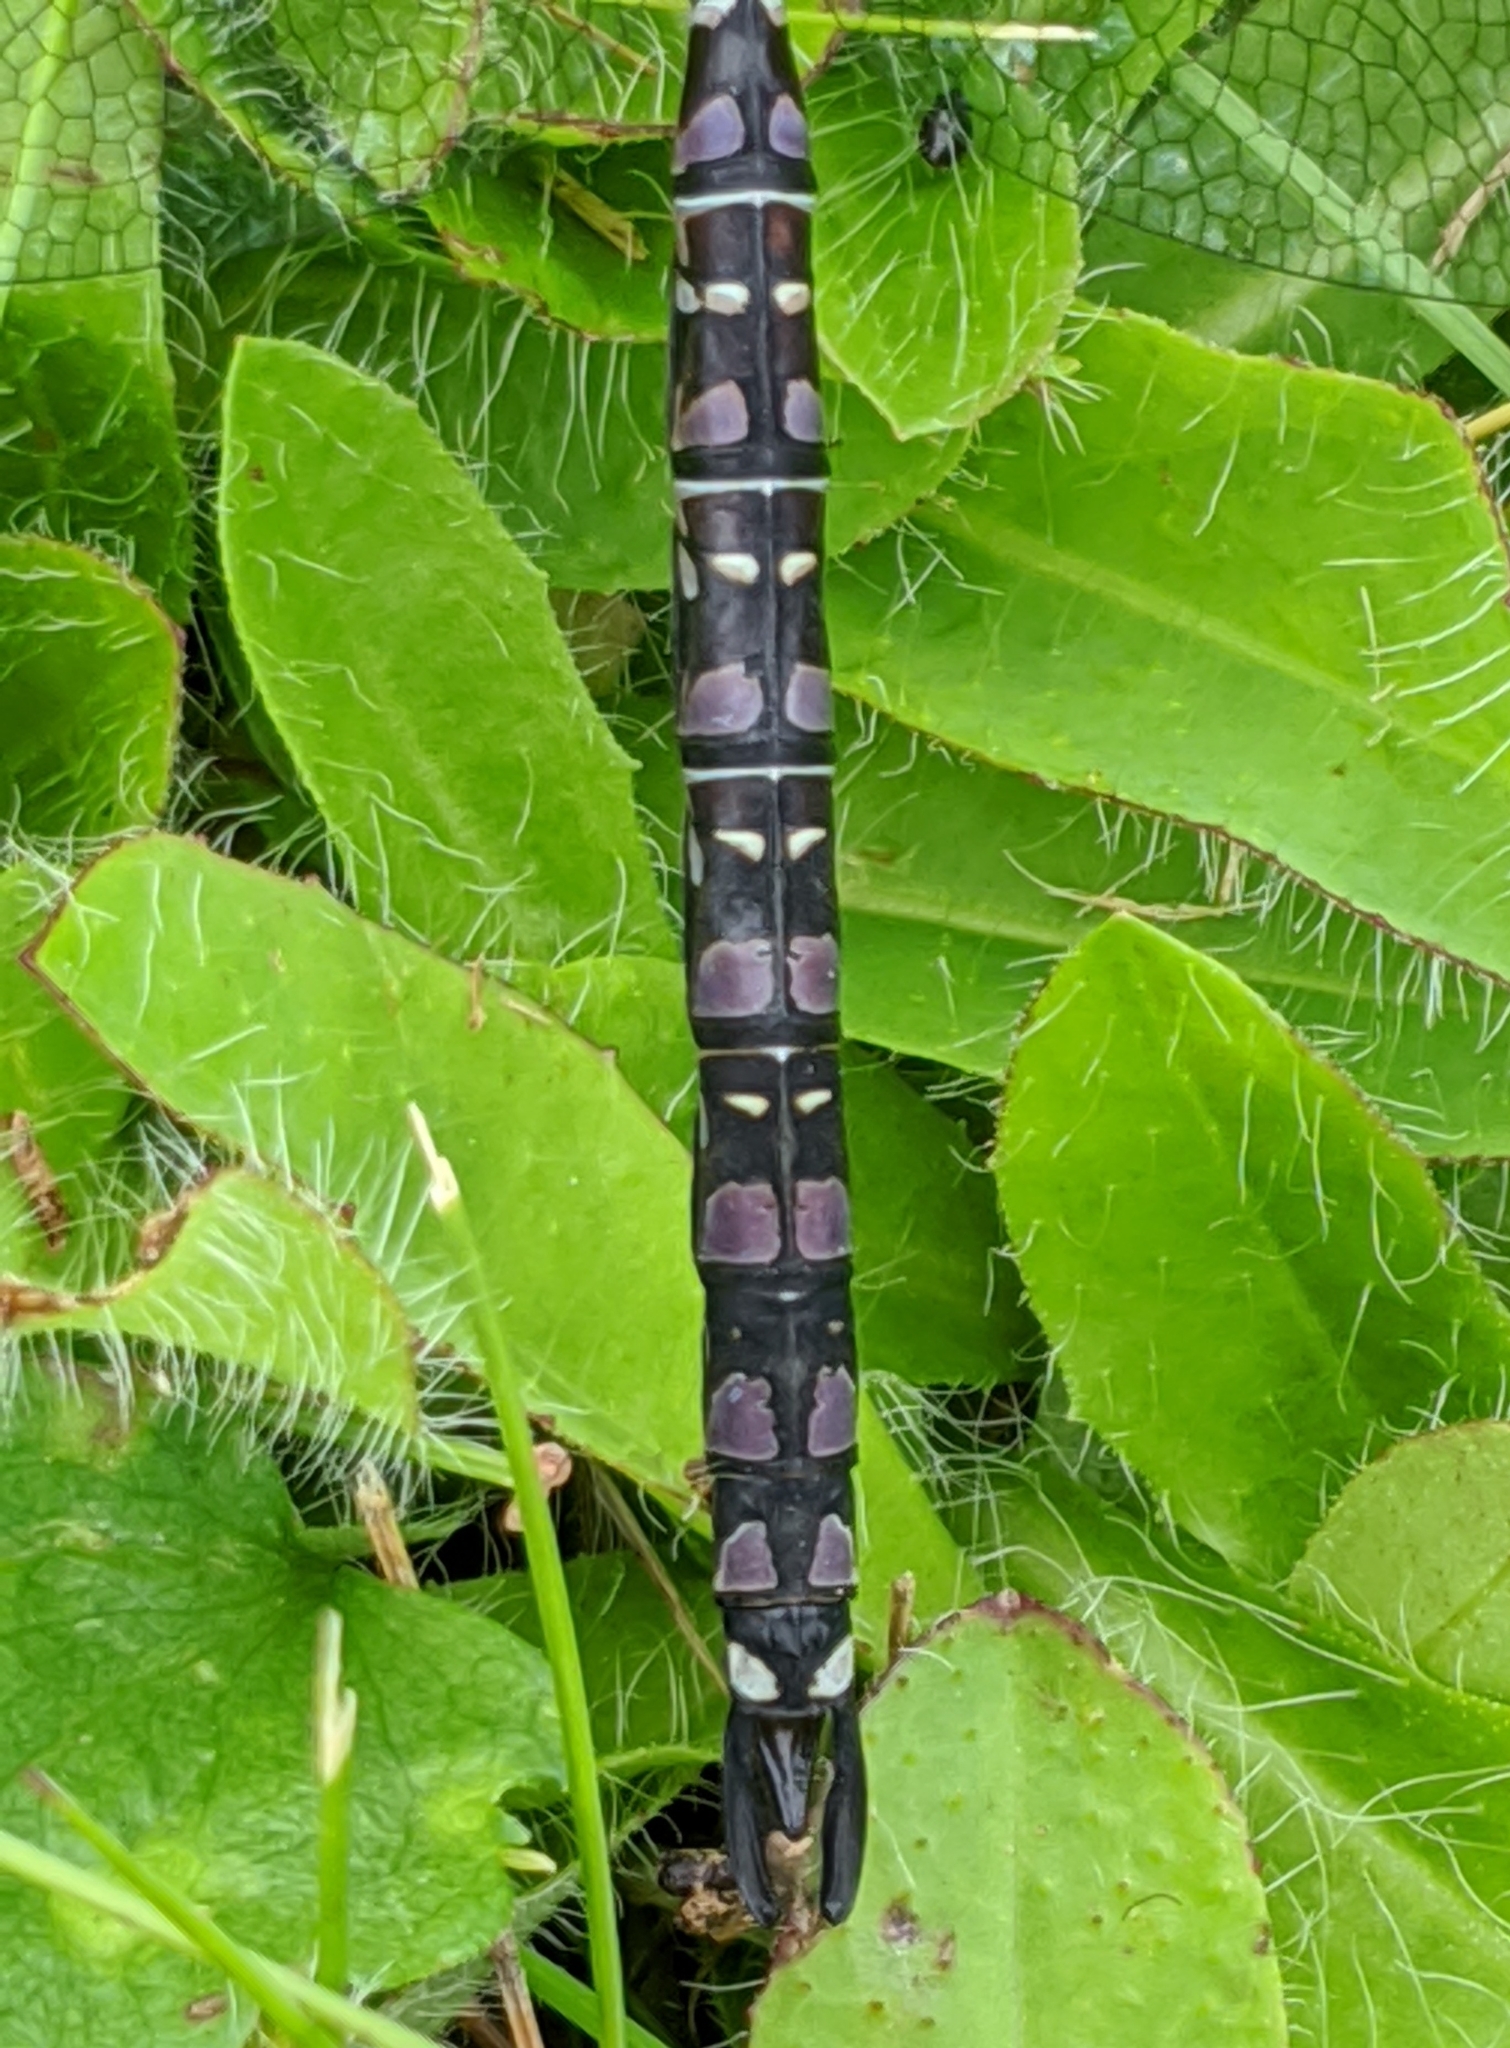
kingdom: Animalia
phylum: Arthropoda
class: Insecta
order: Odonata
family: Aeshnidae
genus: Aeshna
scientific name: Aeshna interrupta
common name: Variable darner
